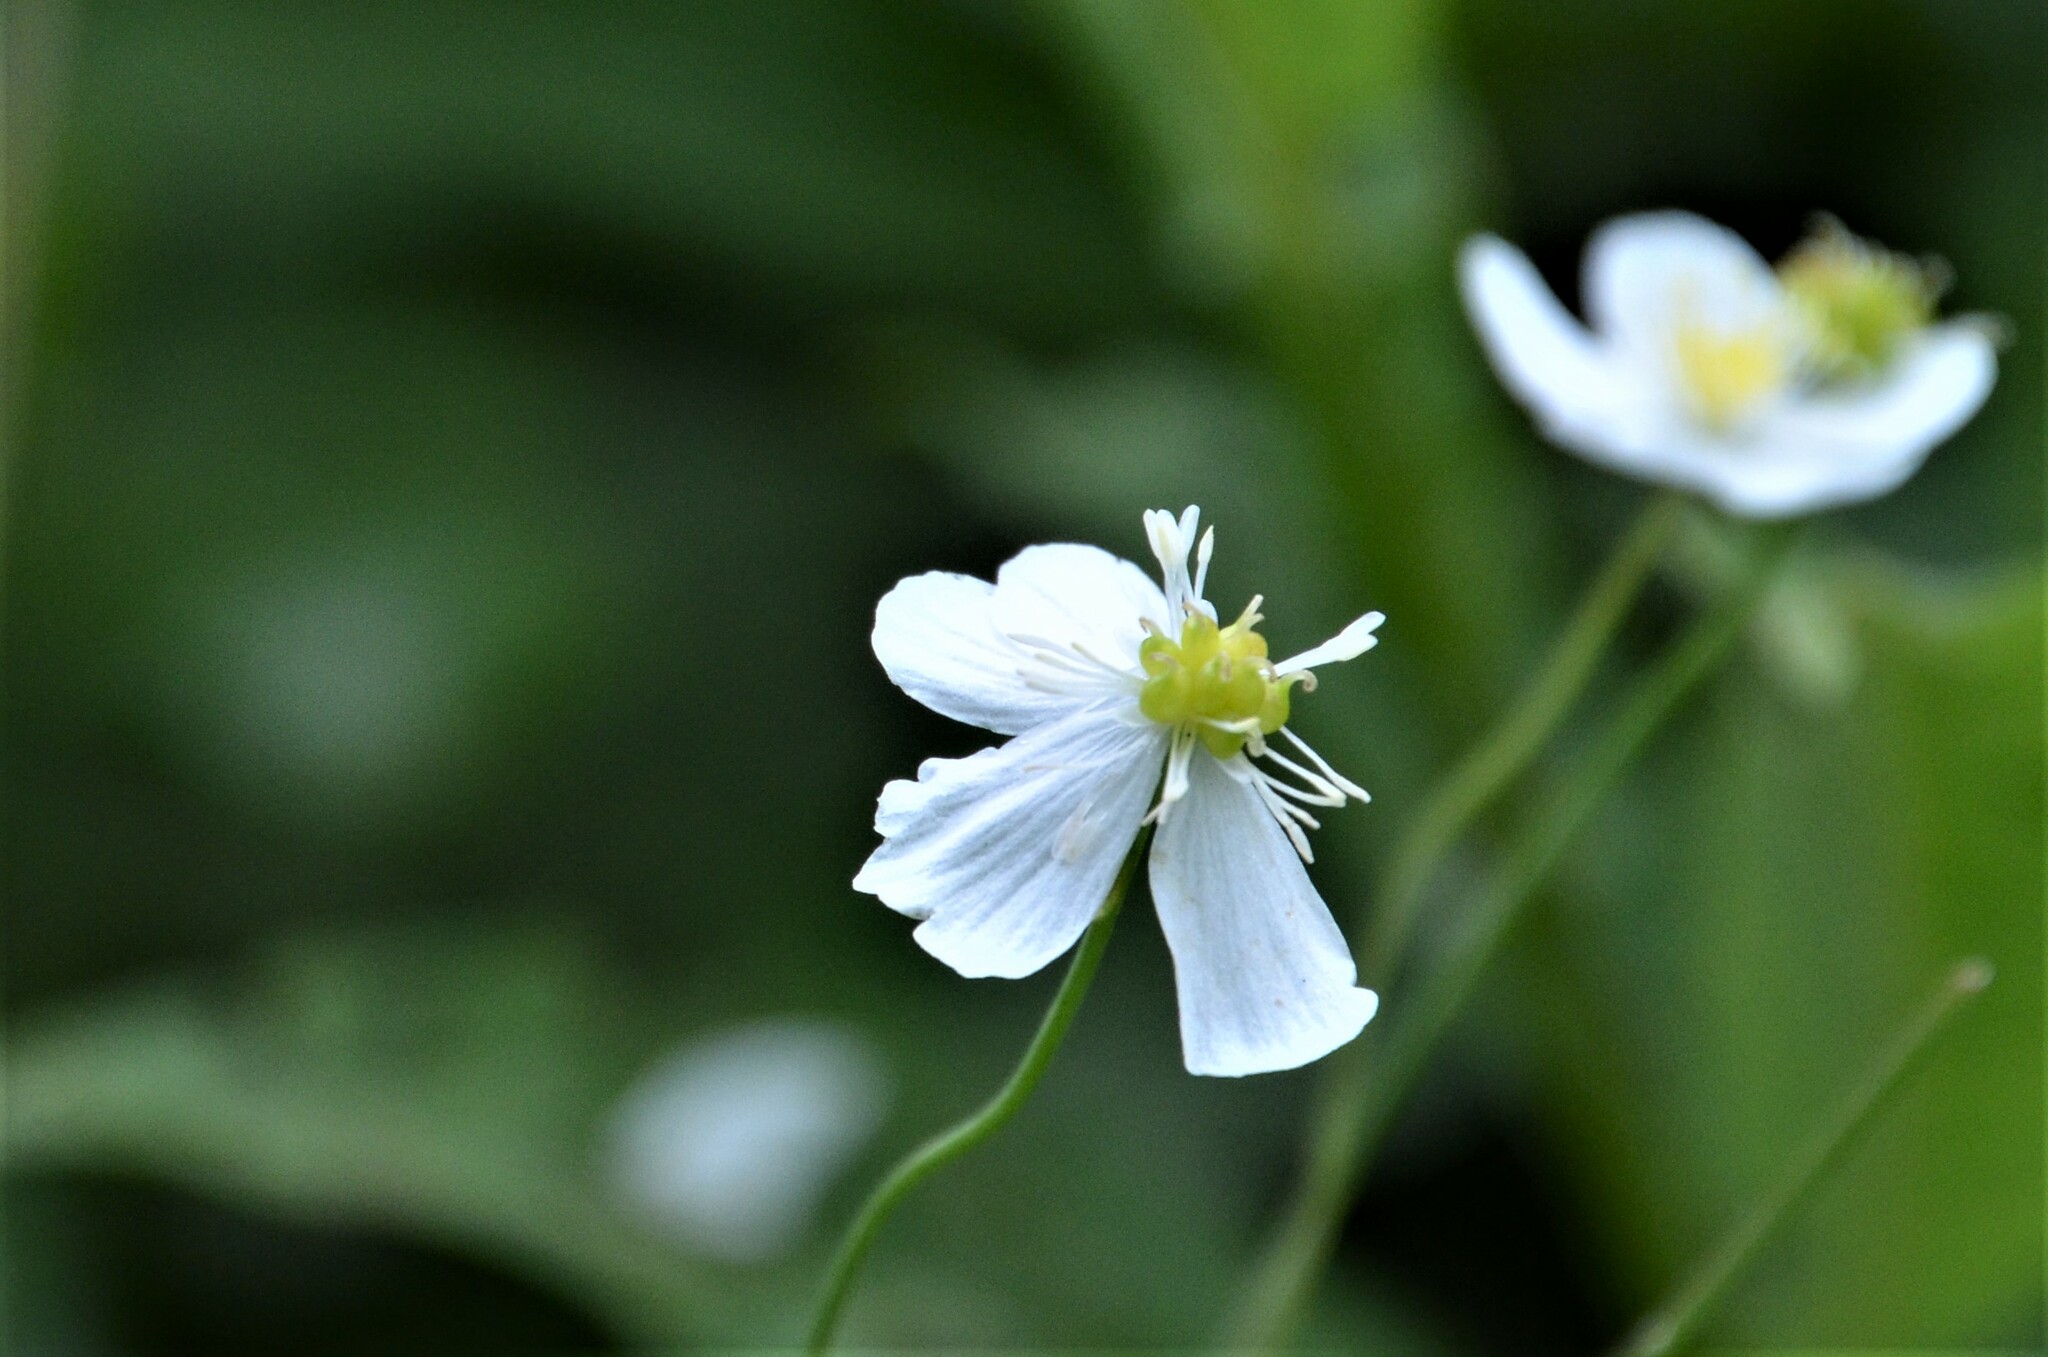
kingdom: Plantae
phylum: Tracheophyta
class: Magnoliopsida
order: Ranunculales
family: Ranunculaceae
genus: Ranunculus
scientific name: Ranunculus platanifolius
